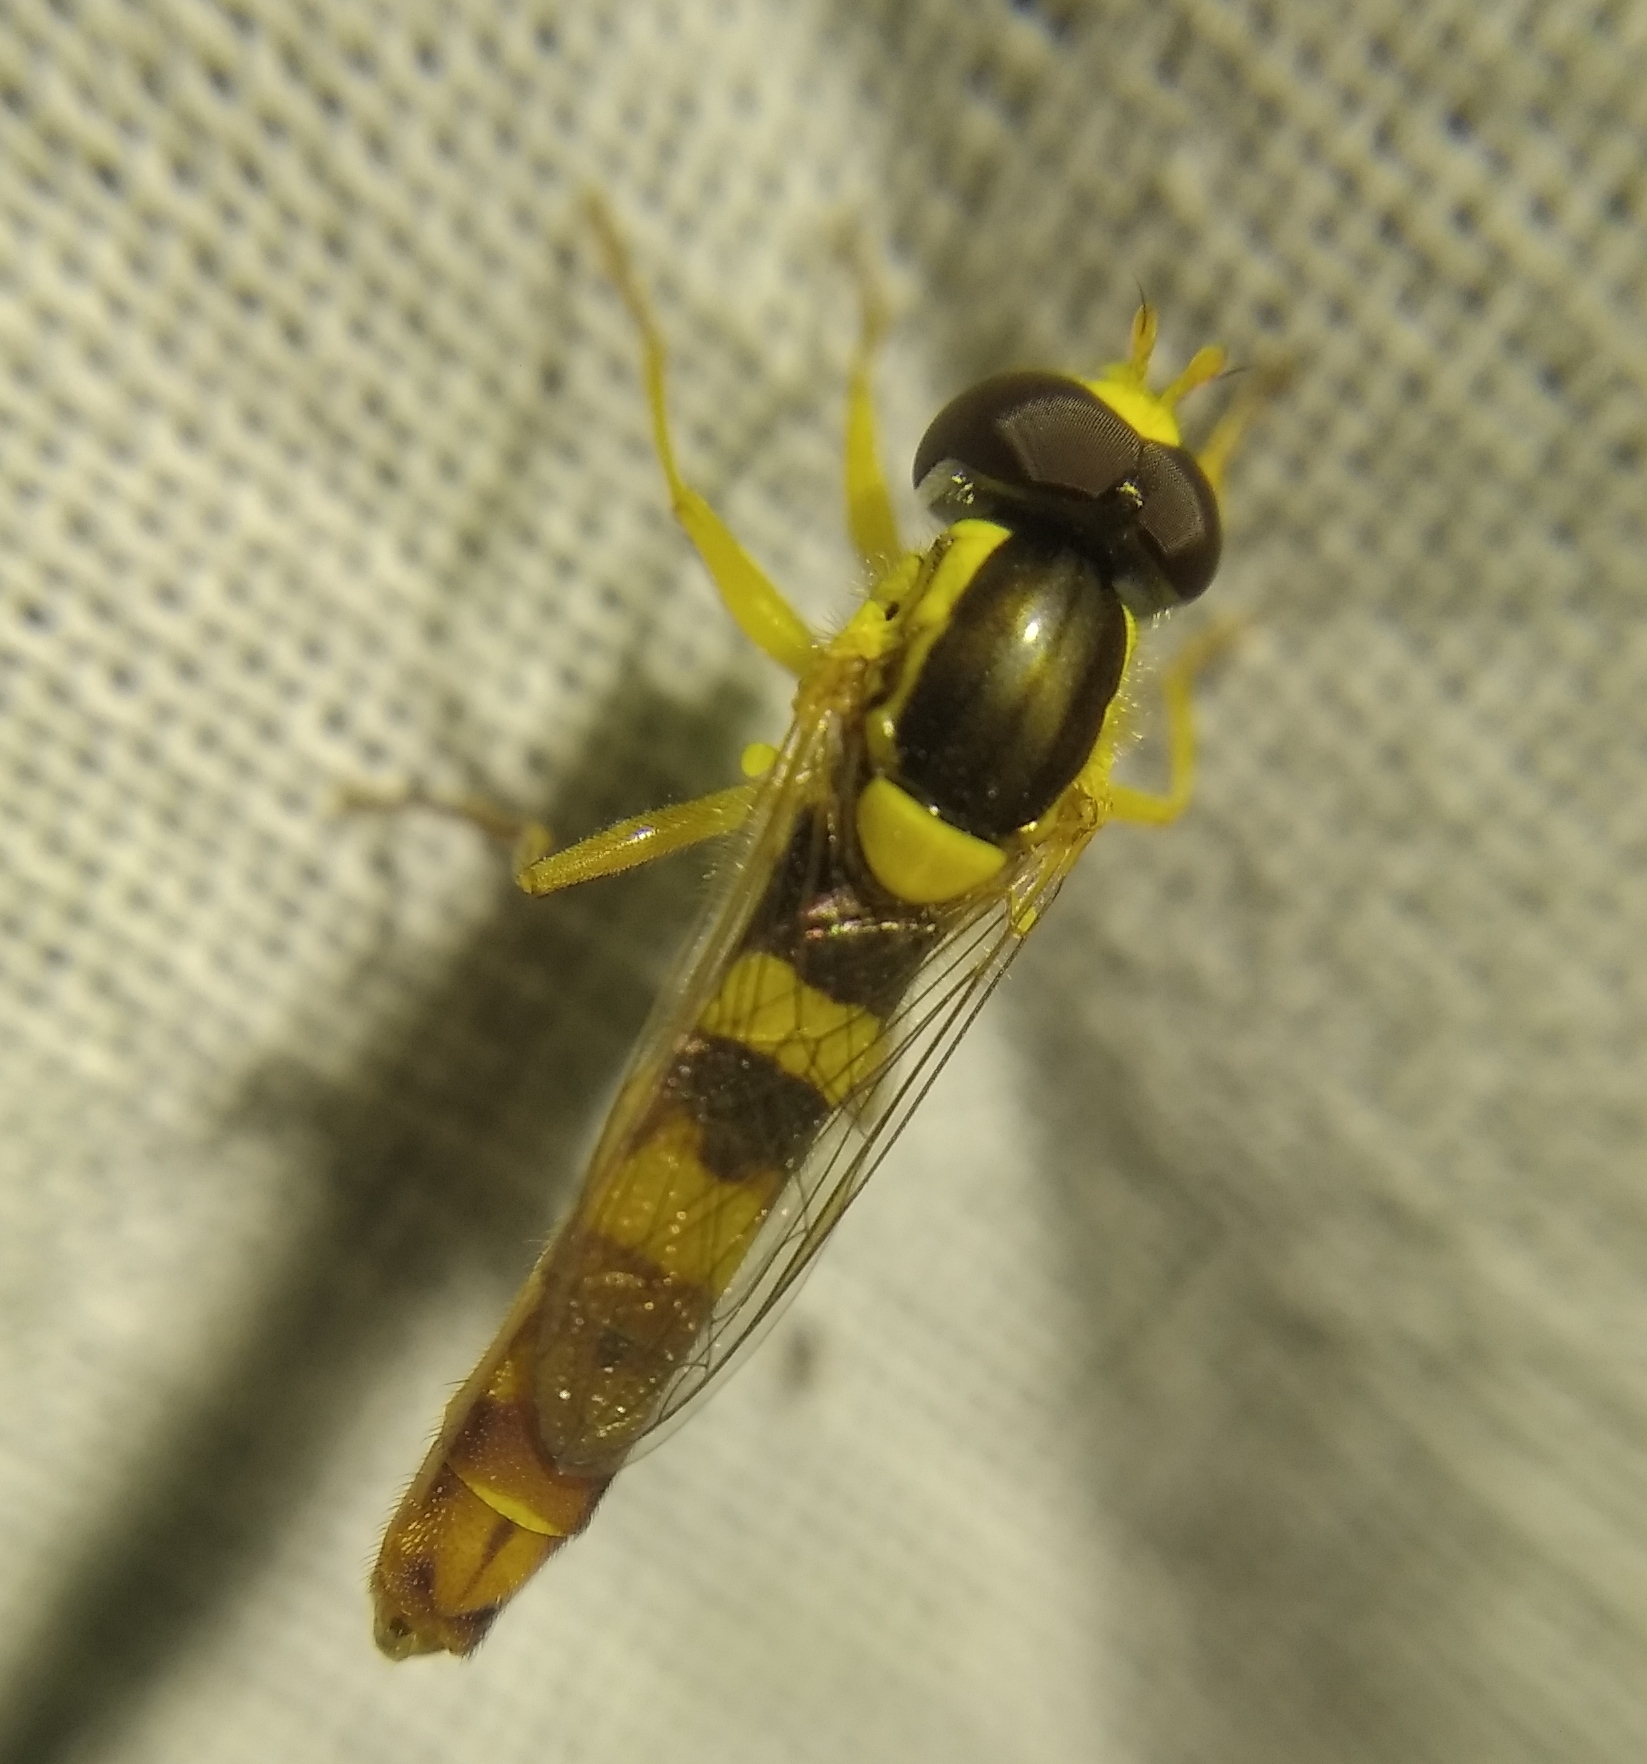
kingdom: Animalia
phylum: Arthropoda
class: Insecta
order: Diptera
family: Syrphidae
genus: Sphaerophoria
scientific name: Sphaerophoria scripta
